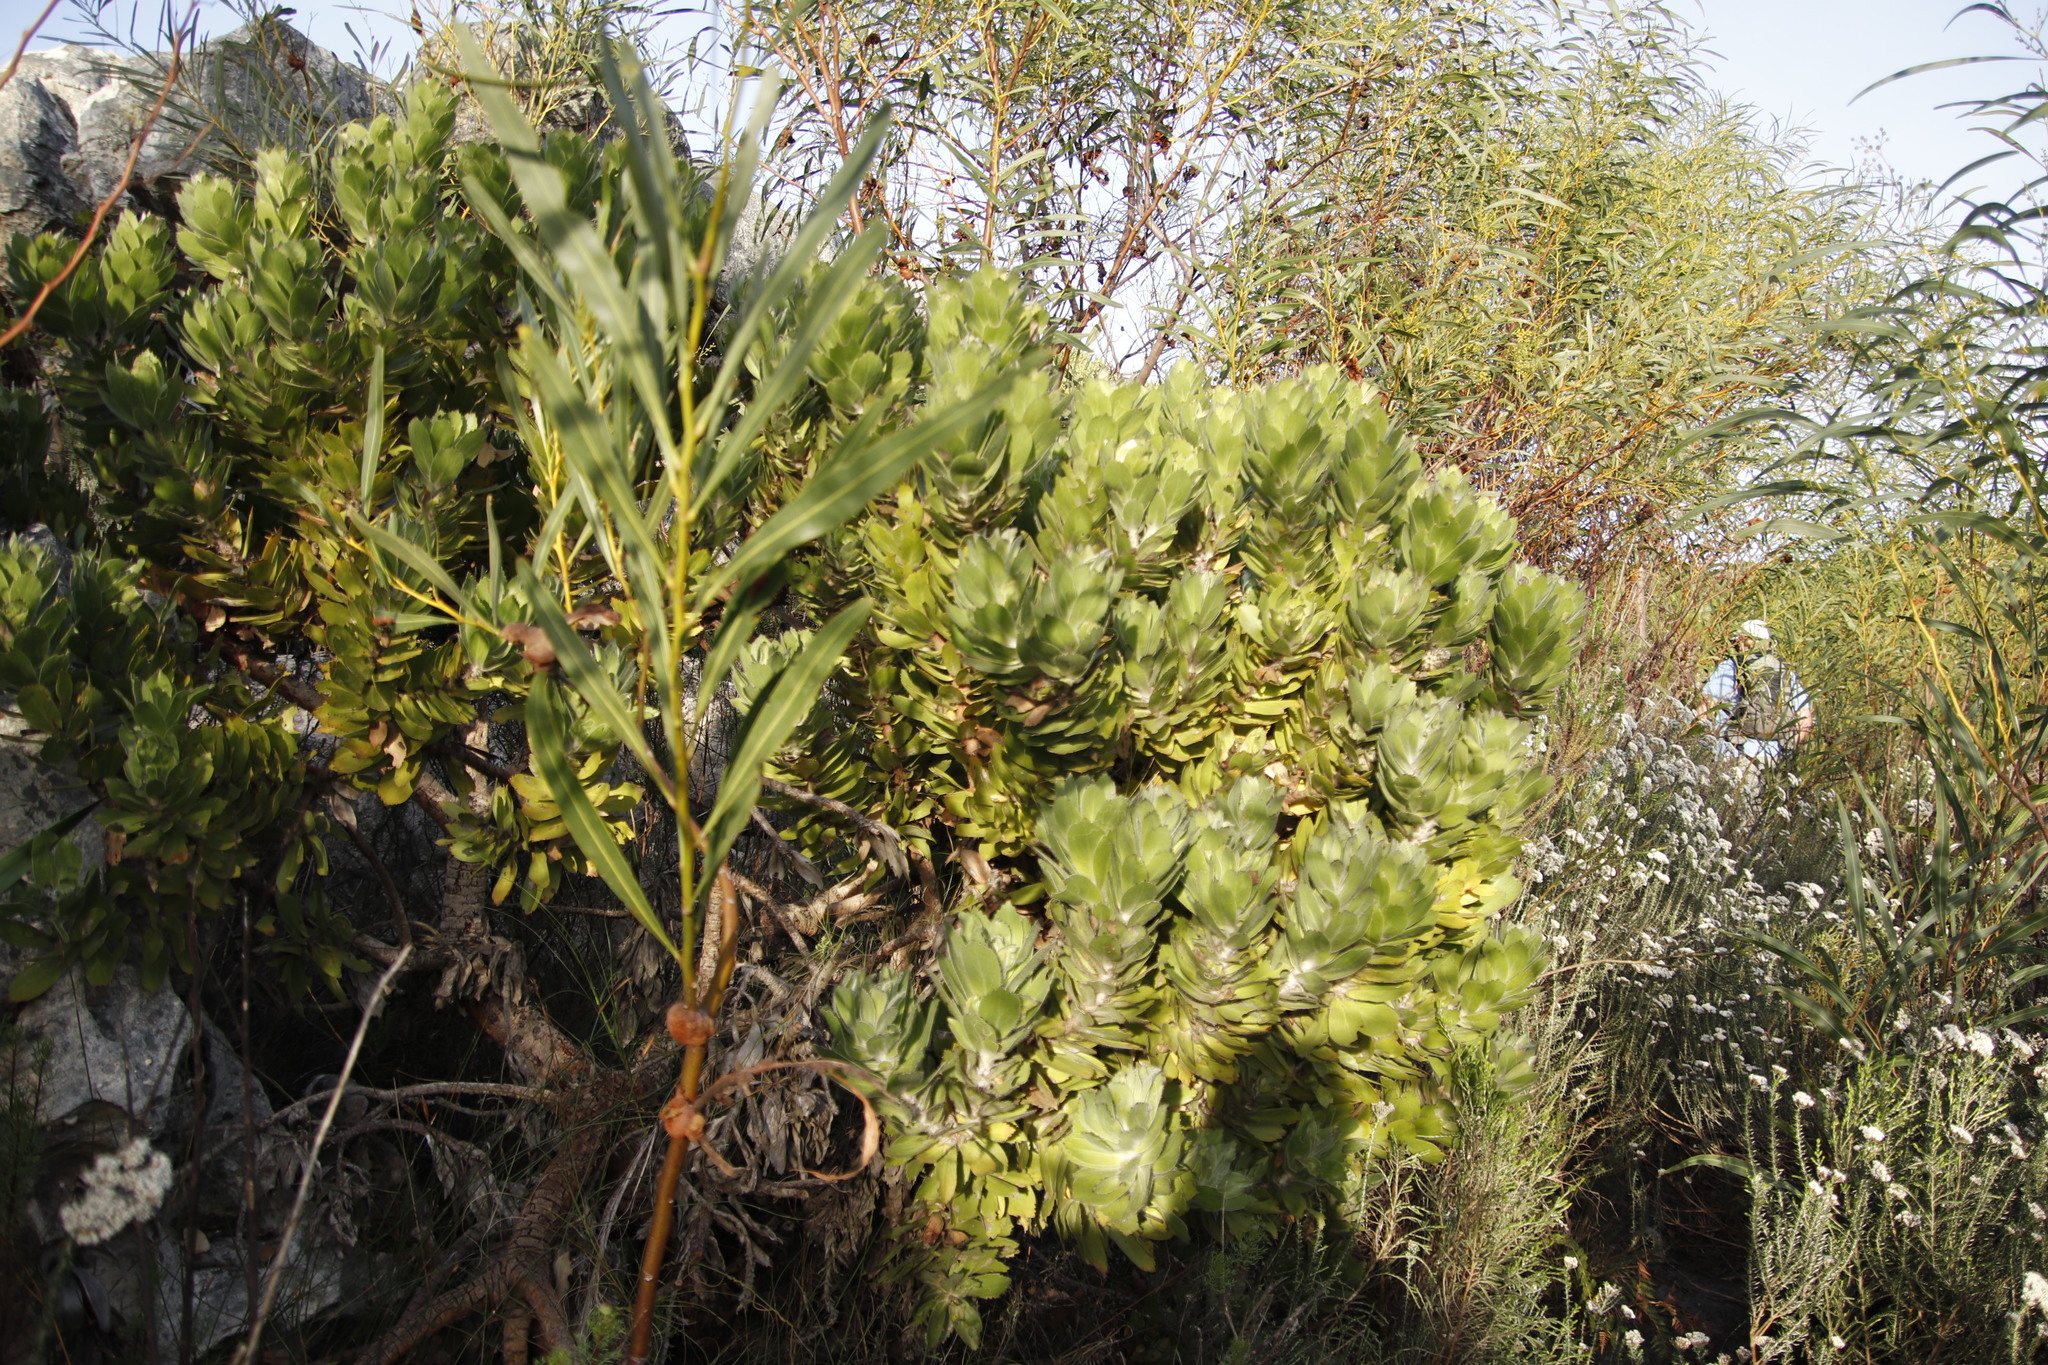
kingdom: Plantae
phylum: Tracheophyta
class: Magnoliopsida
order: Proteales
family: Proteaceae
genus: Leucospermum
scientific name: Leucospermum conocarpodendron
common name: Tree pincushion
